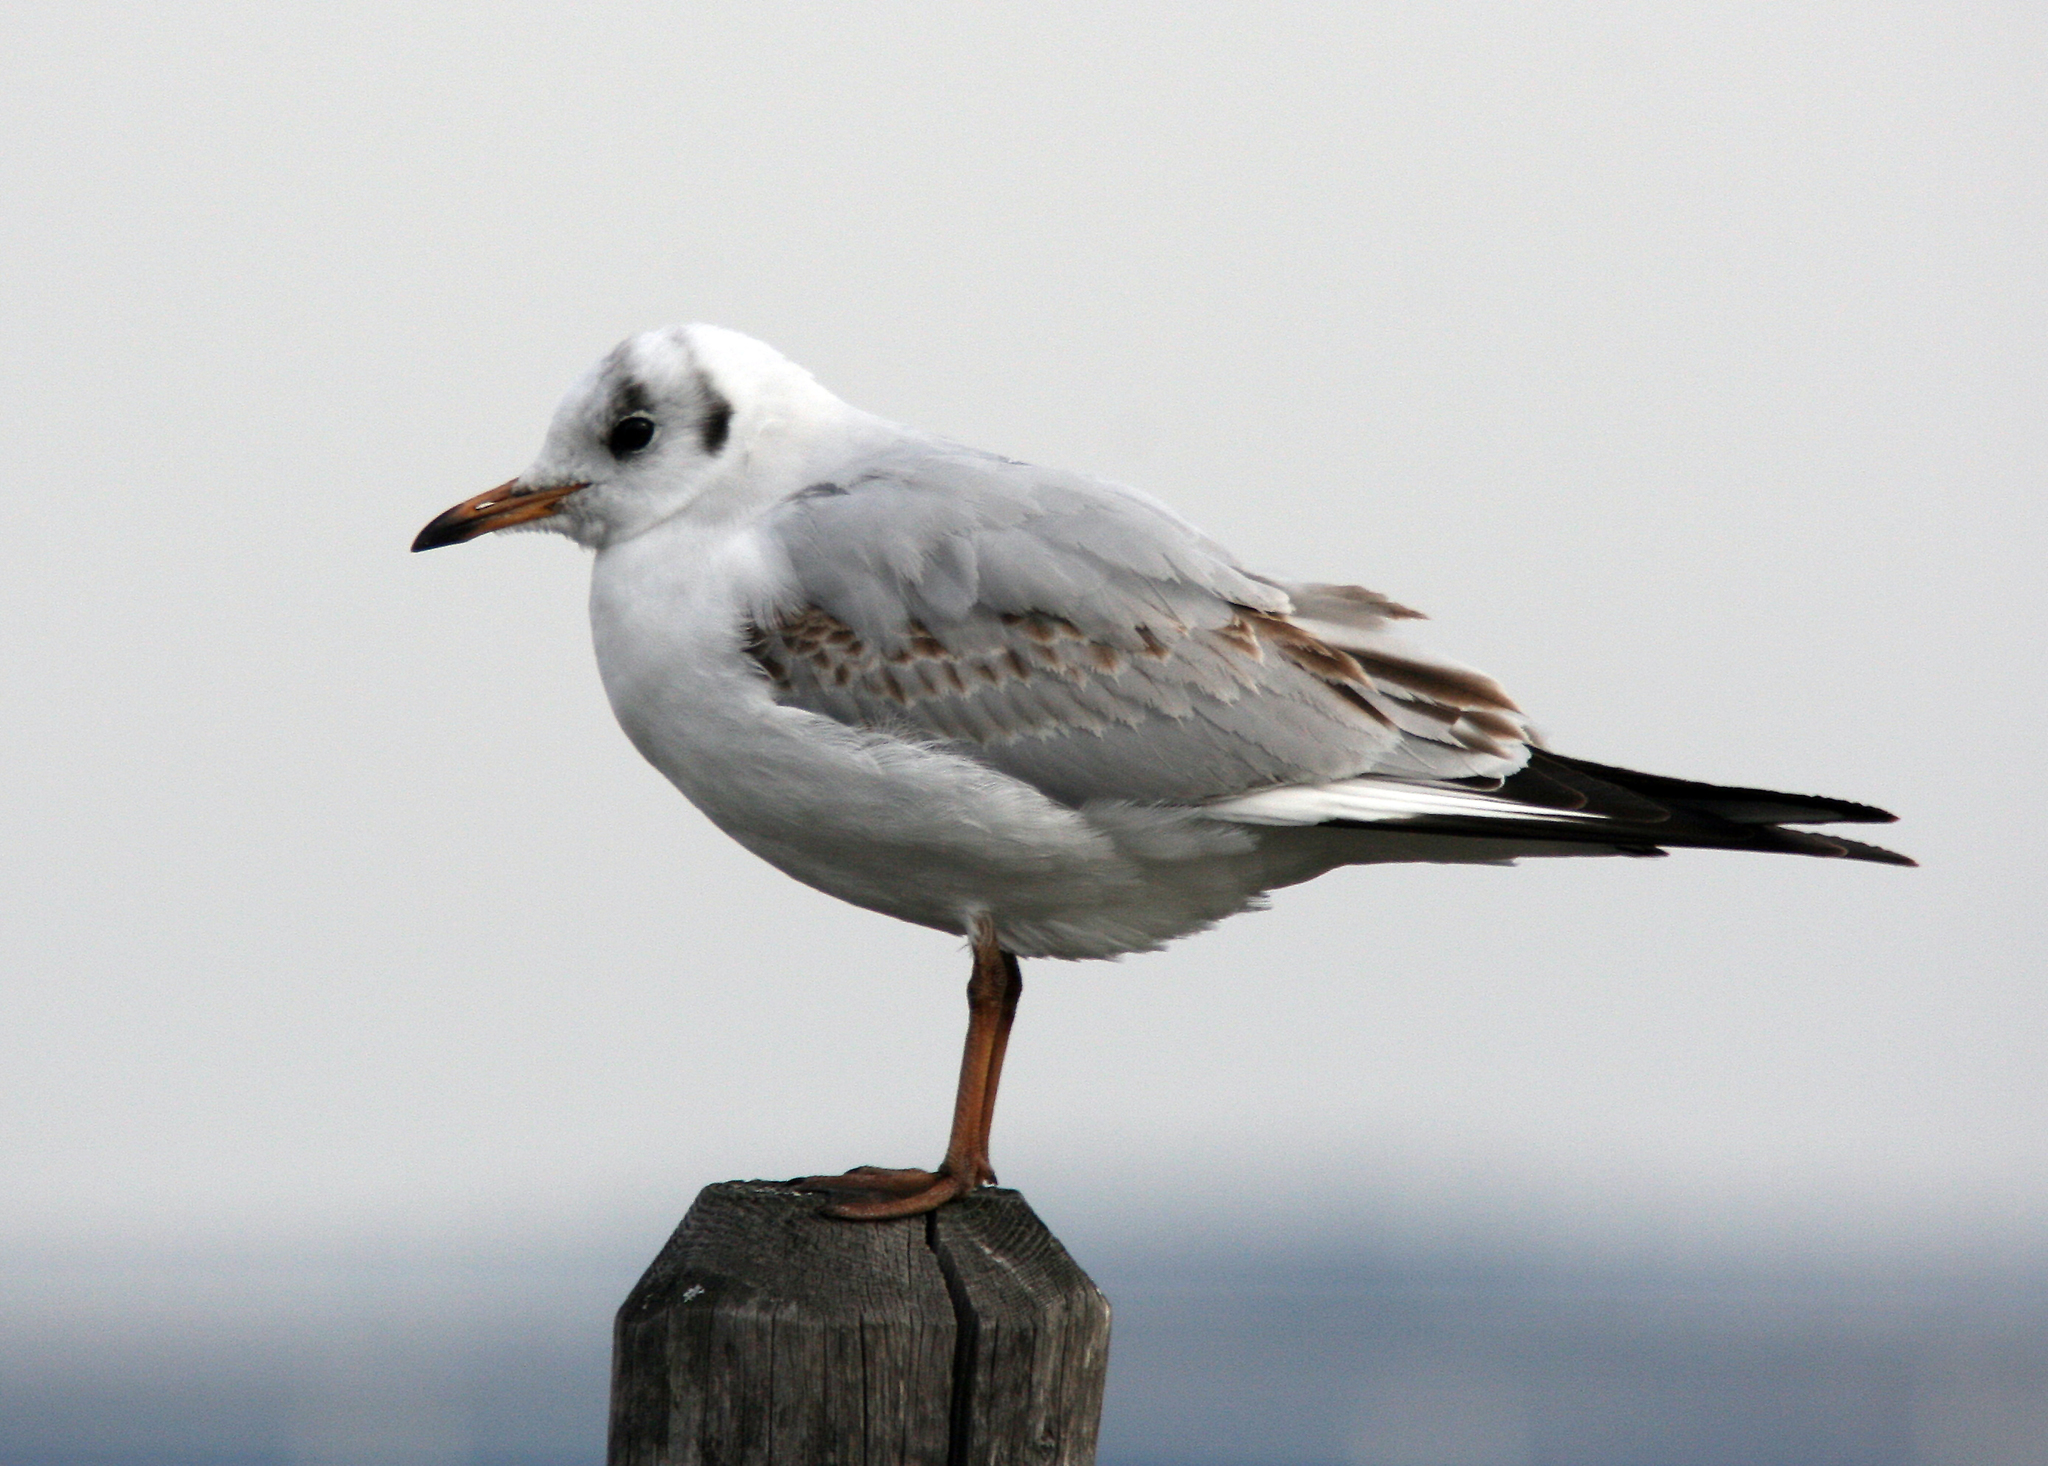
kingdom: Animalia
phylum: Chordata
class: Aves
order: Charadriiformes
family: Laridae
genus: Chroicocephalus
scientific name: Chroicocephalus ridibundus
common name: Black-headed gull
